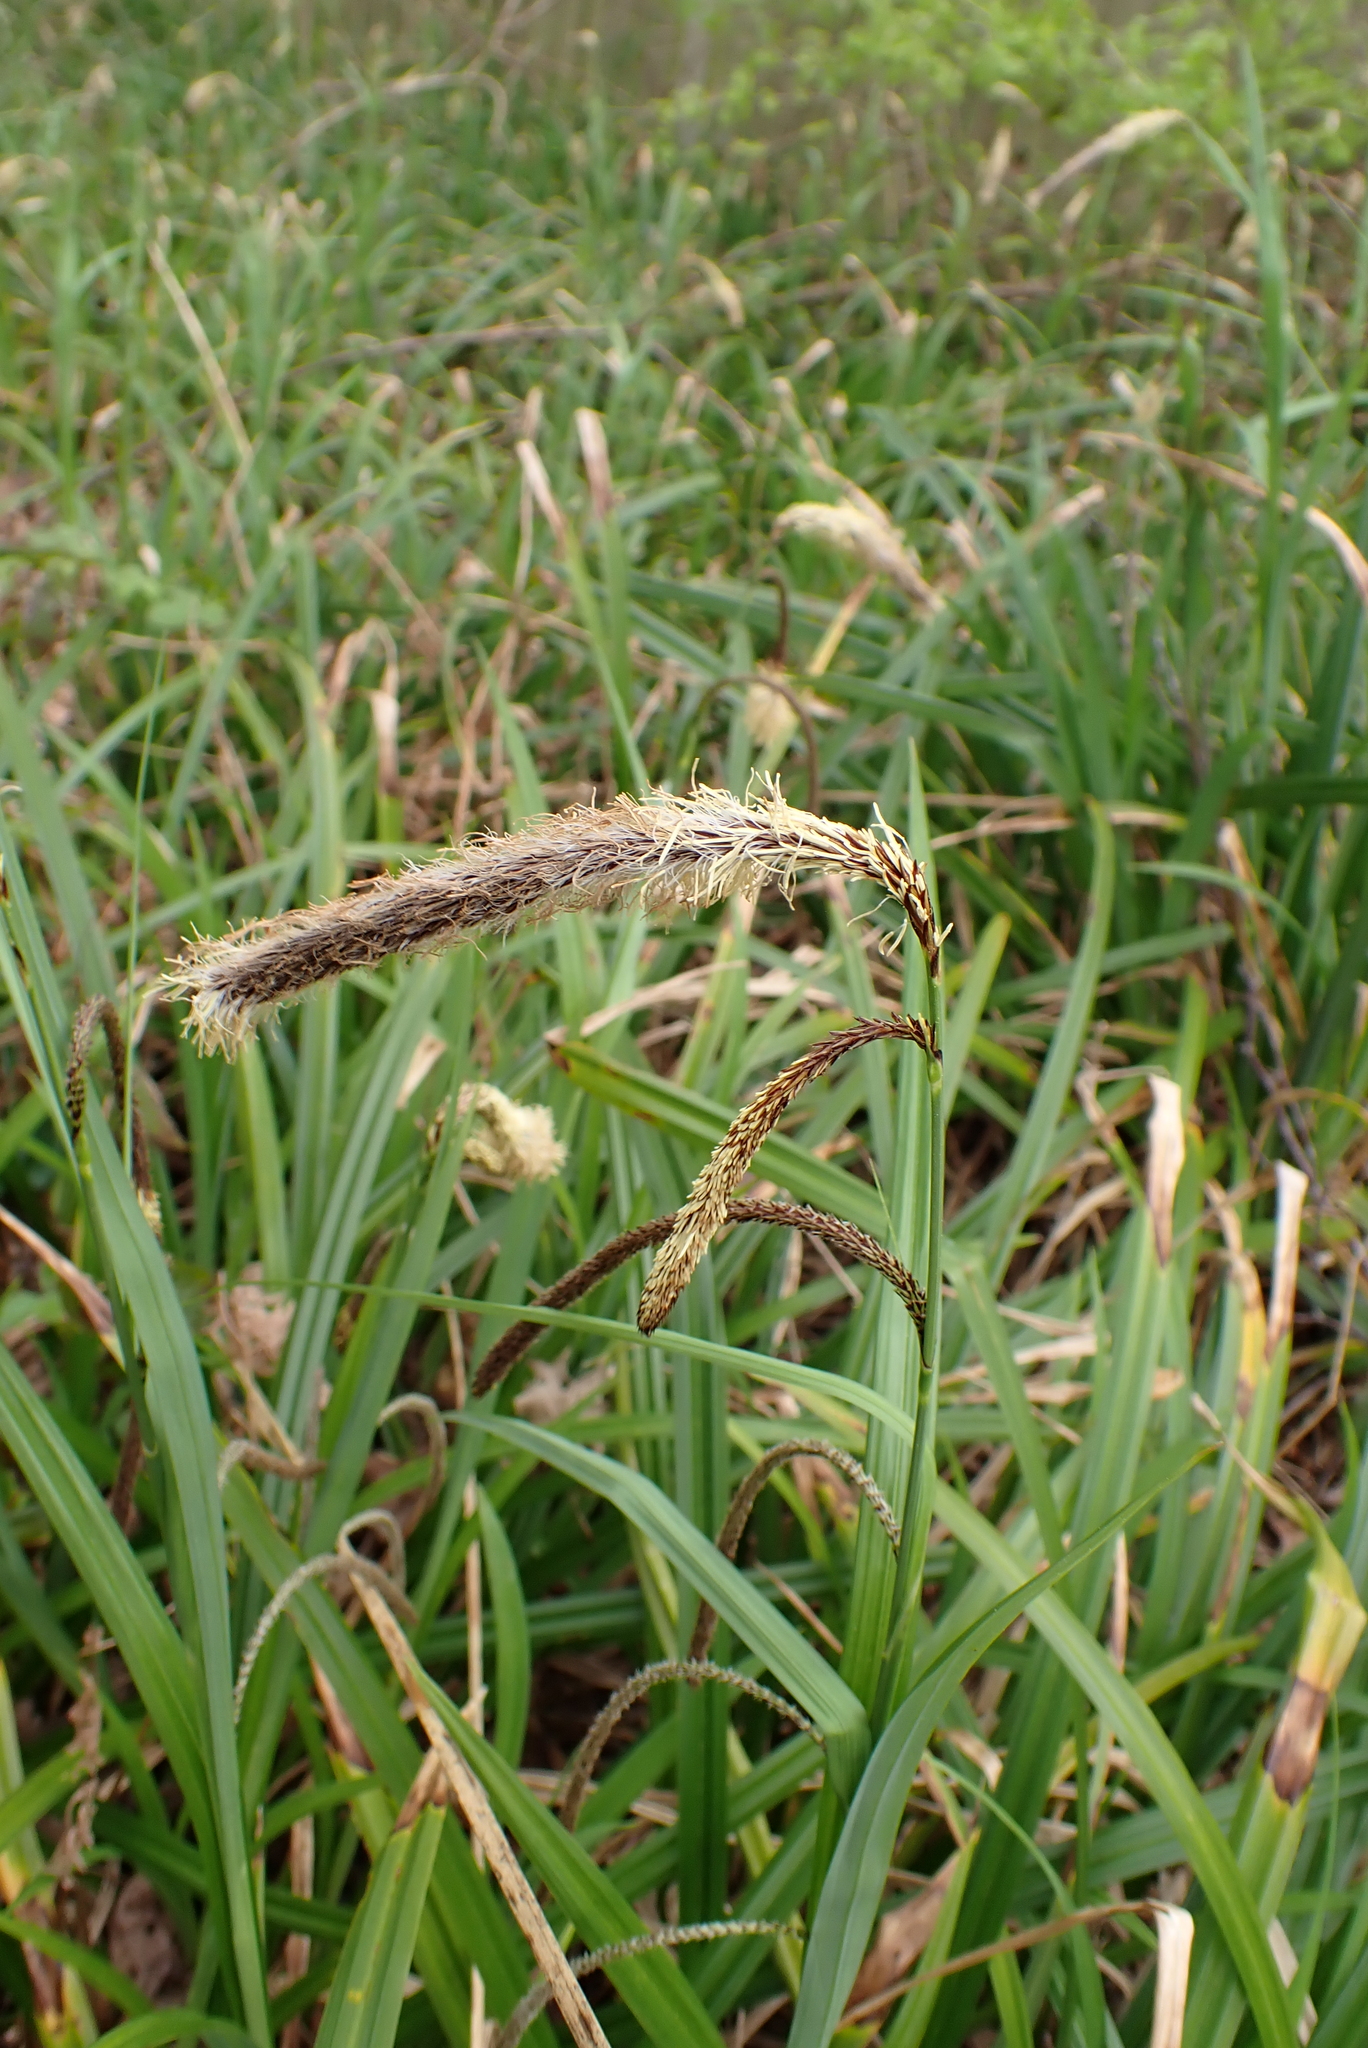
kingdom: Plantae
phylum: Tracheophyta
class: Liliopsida
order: Poales
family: Cyperaceae
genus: Carex
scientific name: Carex pendula
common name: Pendulous sedge
